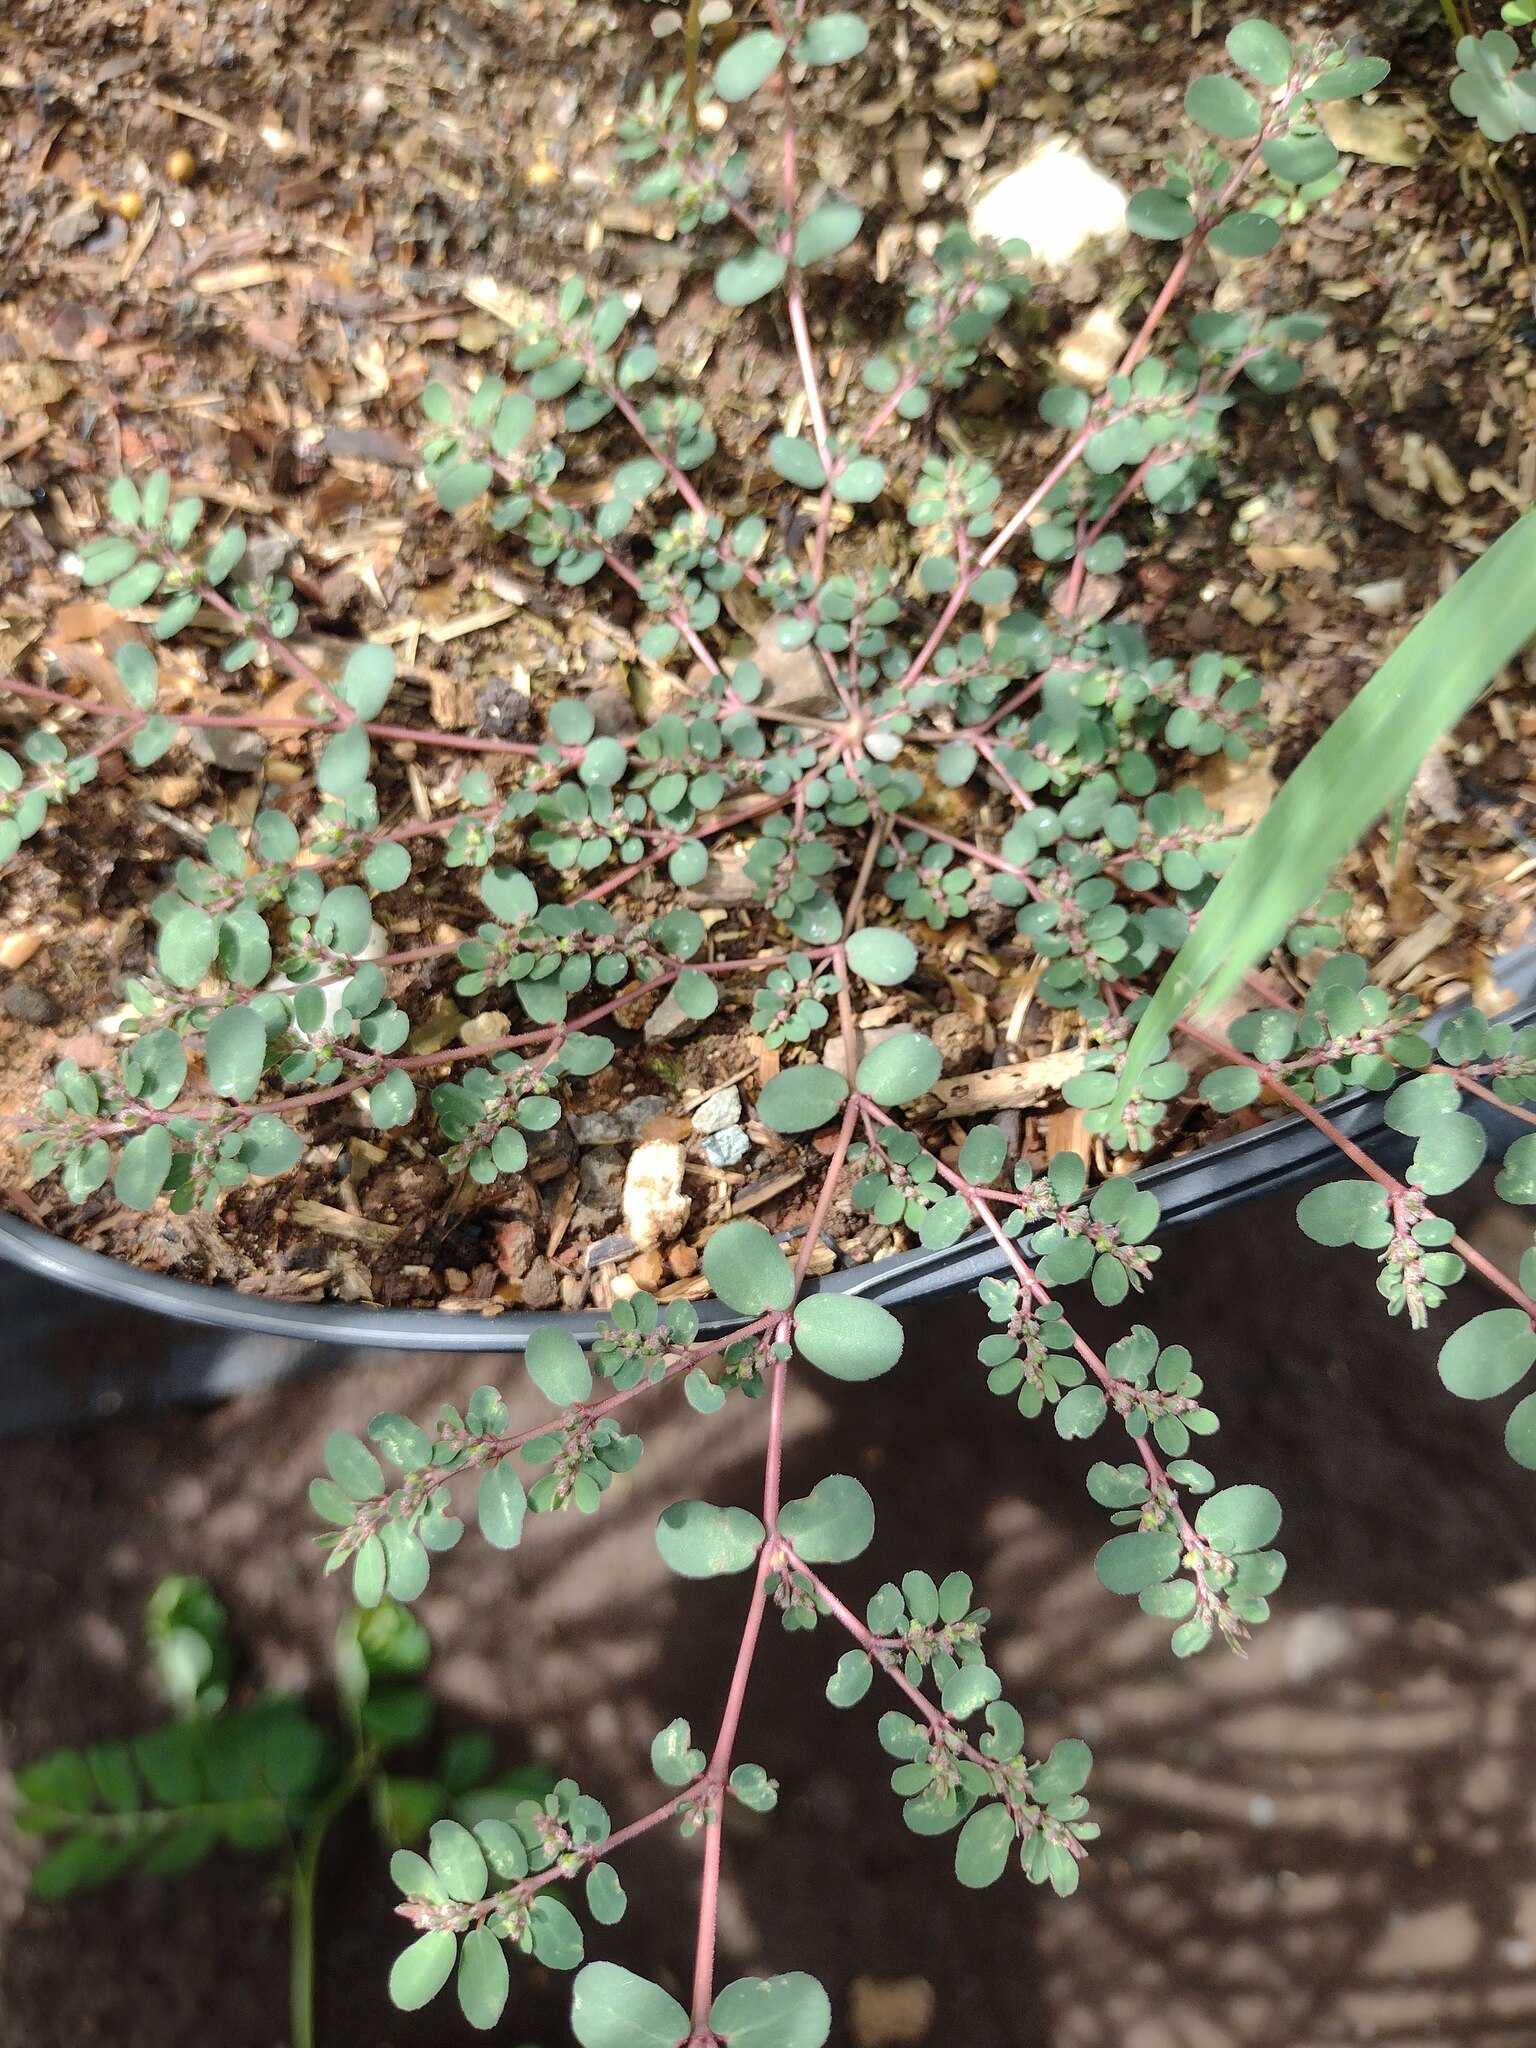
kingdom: Plantae
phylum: Tracheophyta
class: Magnoliopsida
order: Malpighiales
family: Euphorbiaceae
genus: Euphorbia
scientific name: Euphorbia prostrata
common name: Prostrate sandmat
